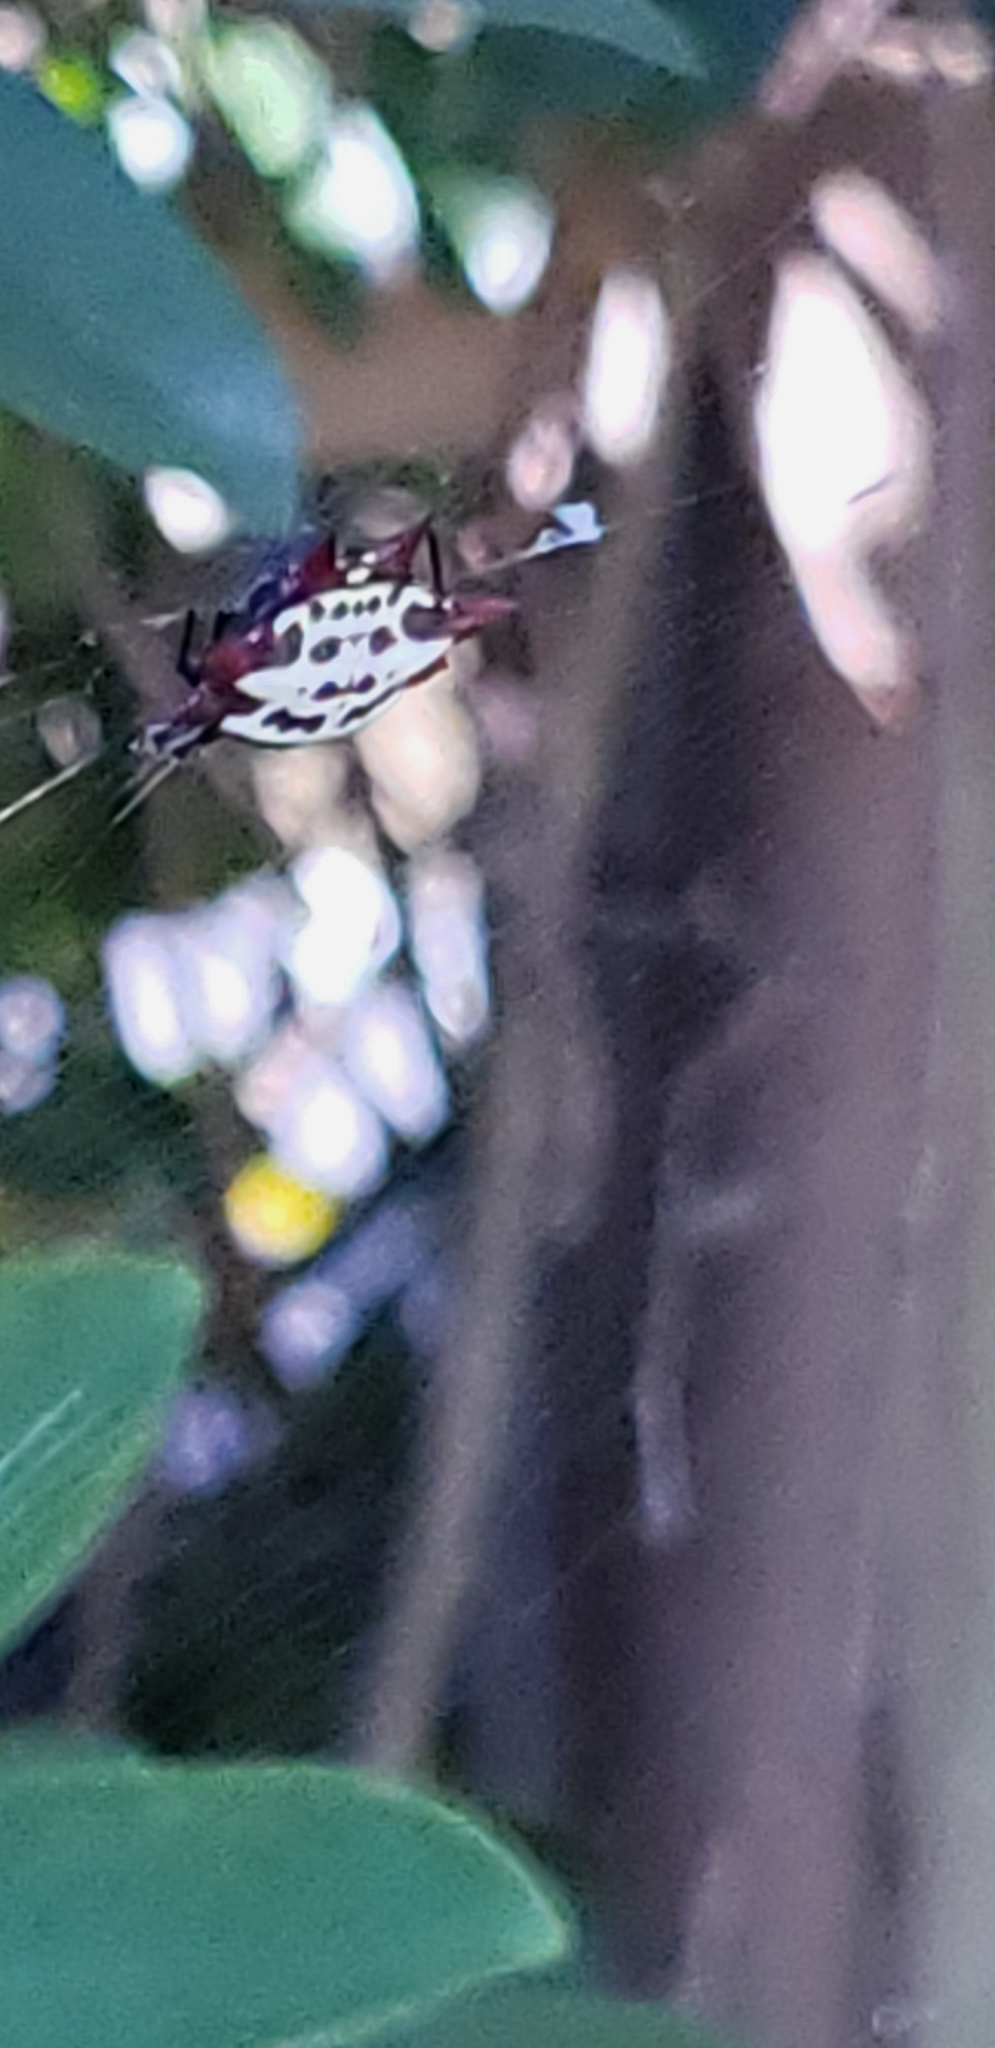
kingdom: Animalia
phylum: Arthropoda
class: Arachnida
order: Araneae
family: Araneidae
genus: Gasteracantha
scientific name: Gasteracantha cancriformis
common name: Orb weavers
